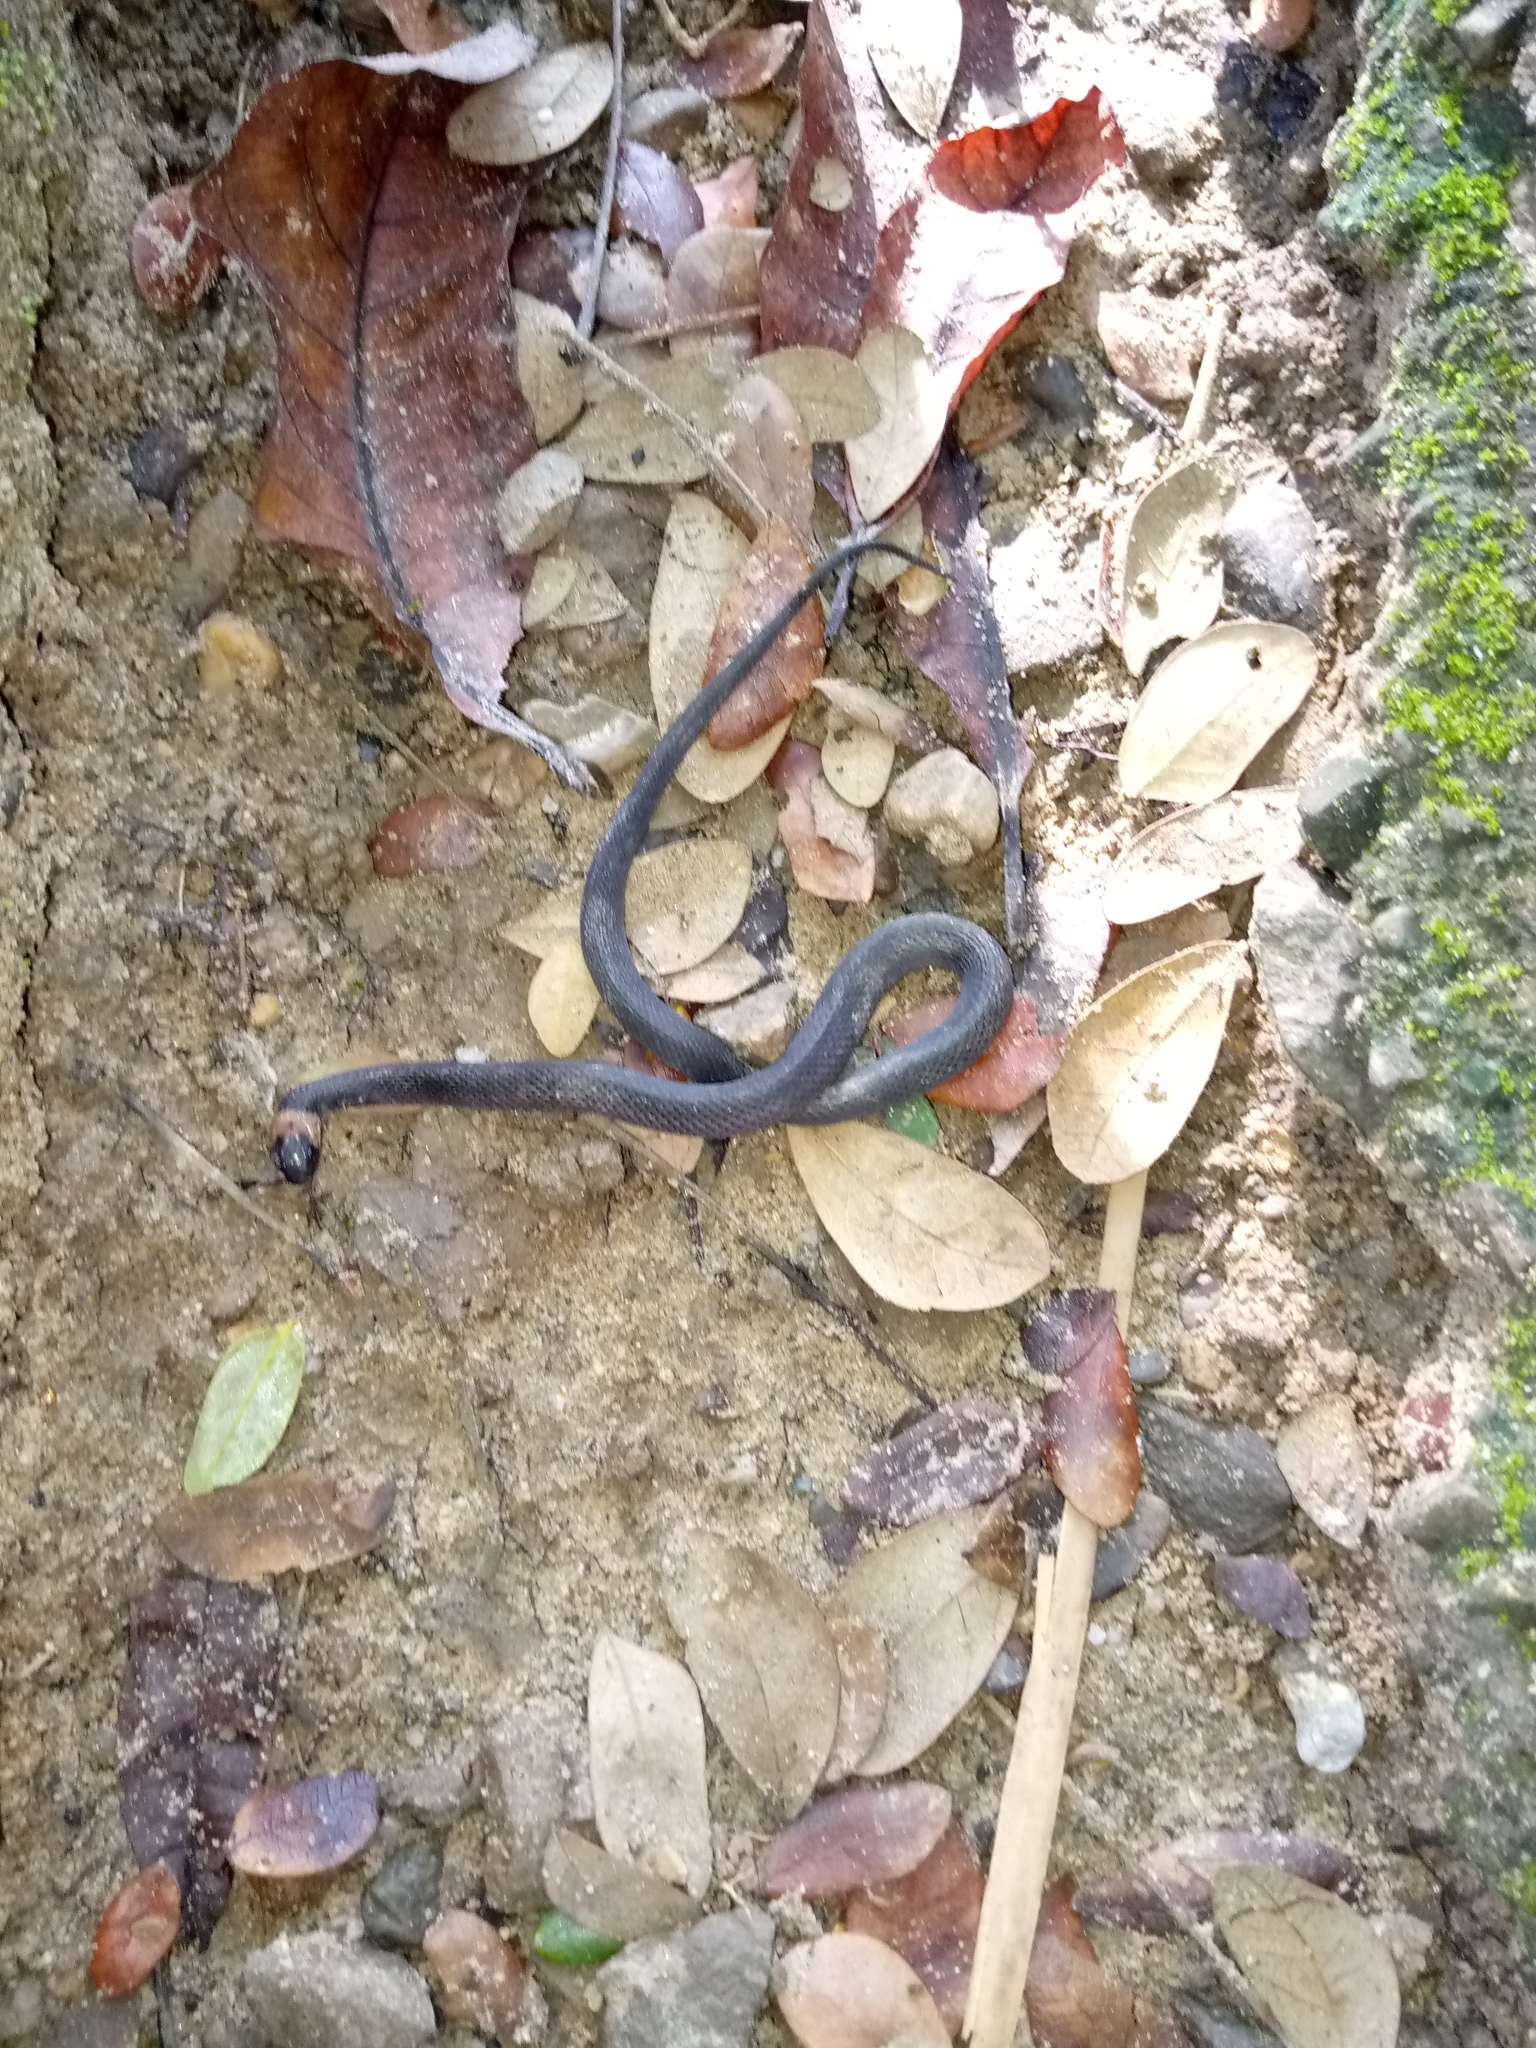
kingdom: Animalia
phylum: Chordata
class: Squamata
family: Colubridae
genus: Ninia
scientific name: Ninia atrata
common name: Hallowell's coffee snake
